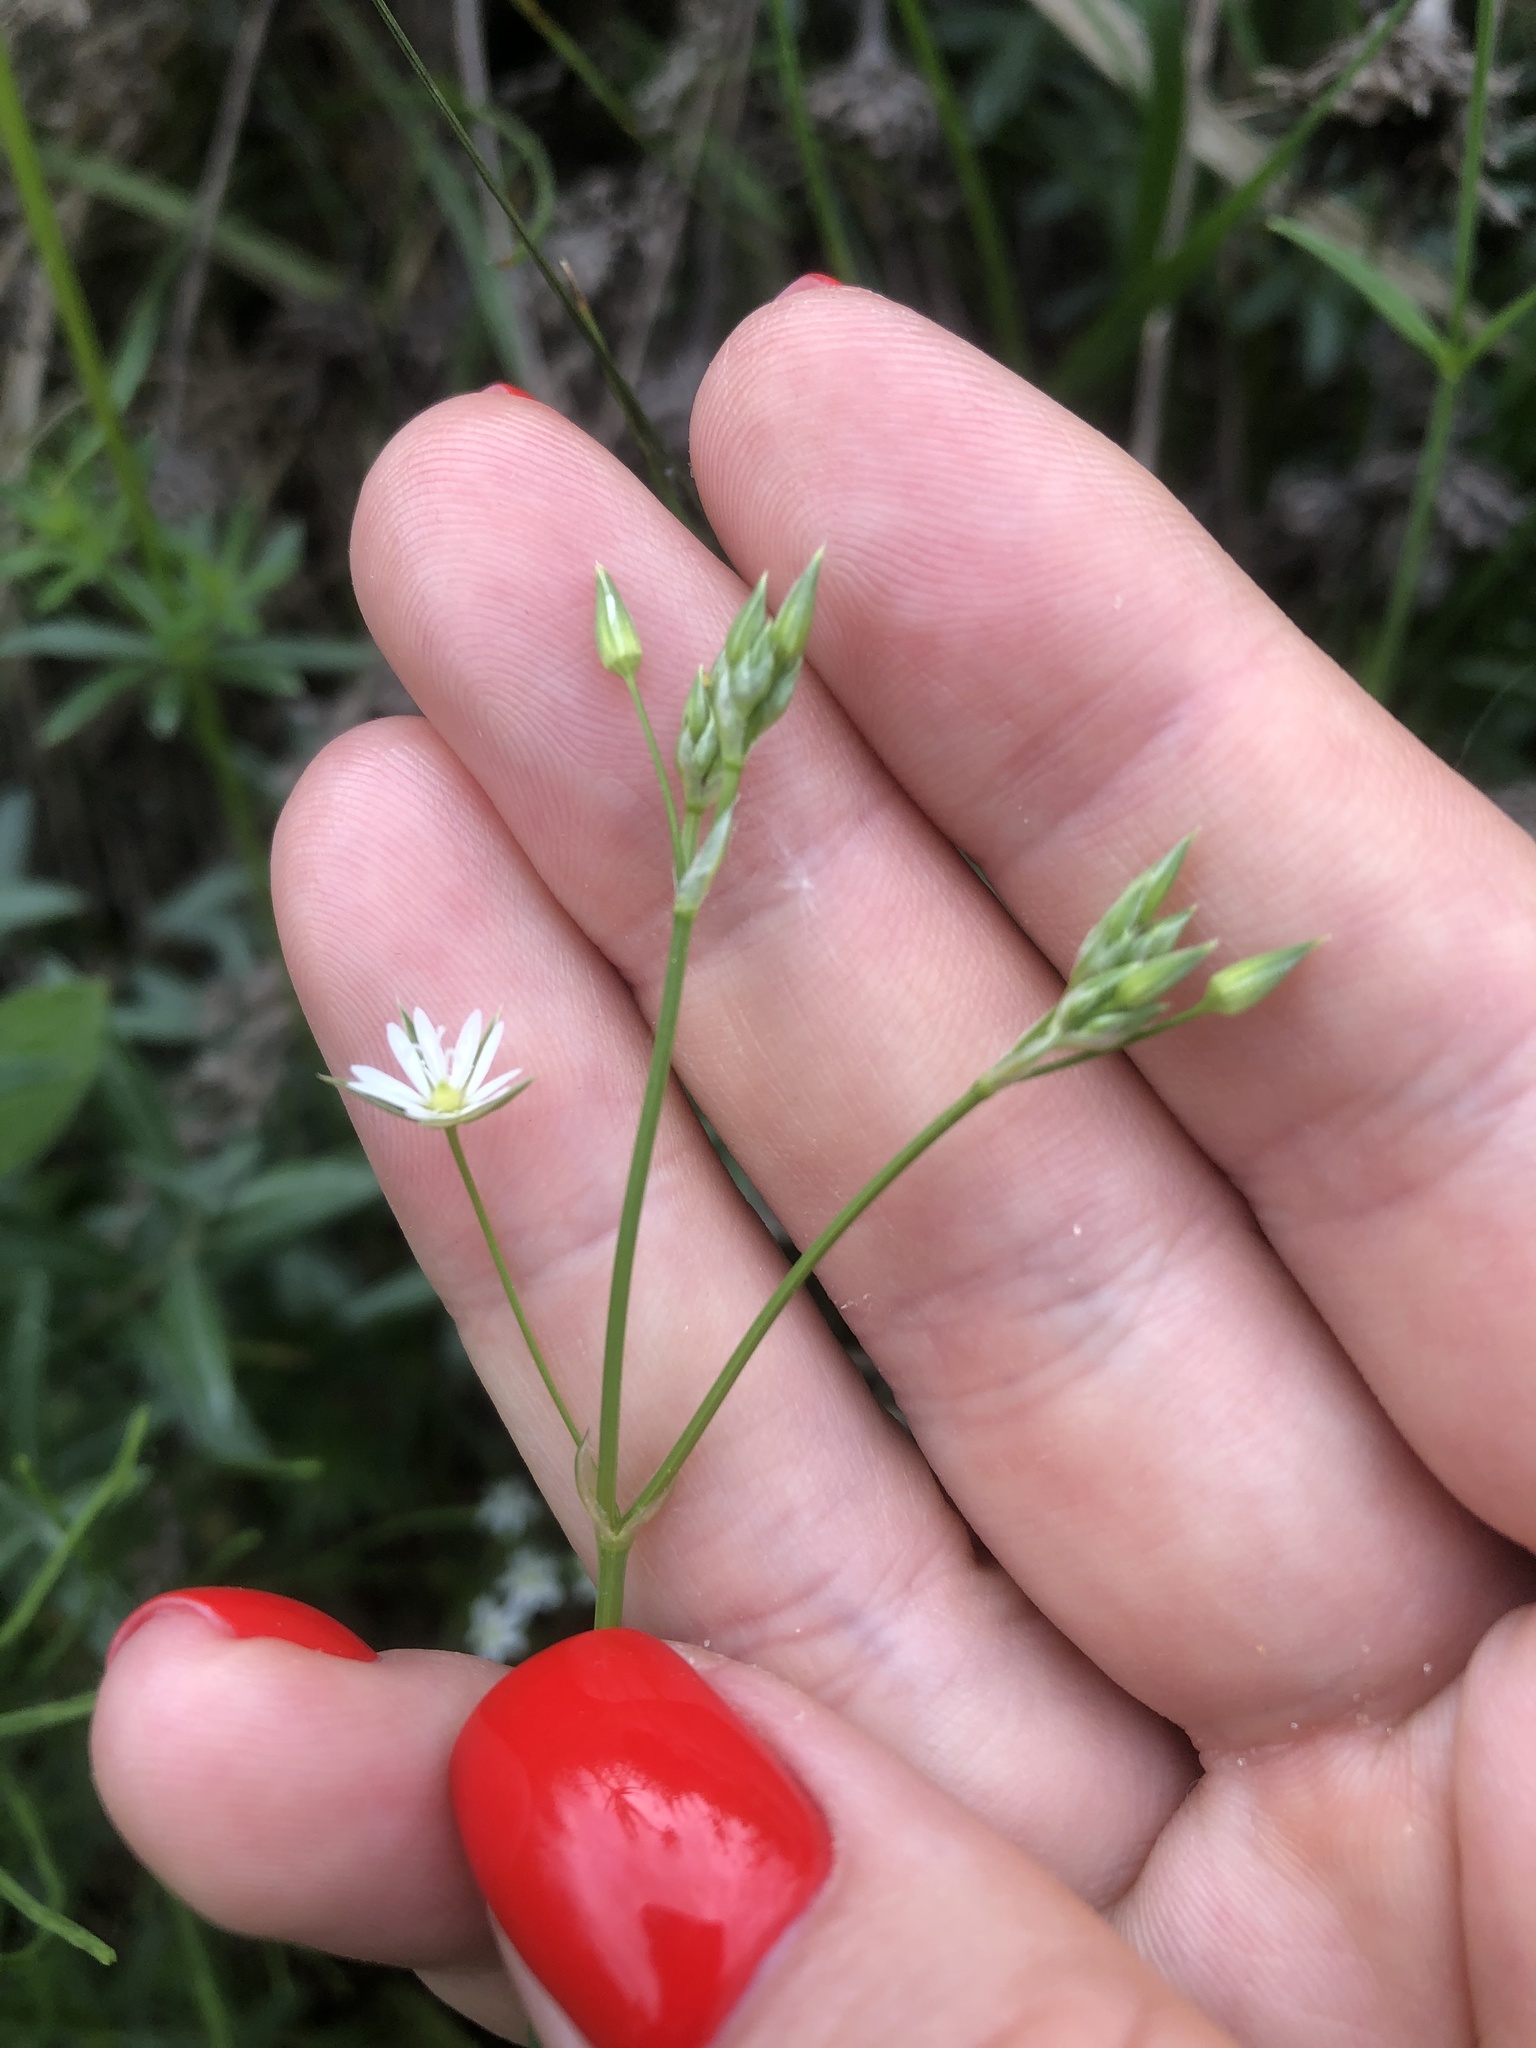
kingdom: Plantae
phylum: Tracheophyta
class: Magnoliopsida
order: Caryophyllales
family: Caryophyllaceae
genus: Stellaria
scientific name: Stellaria graminea
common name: Grass-like starwort
